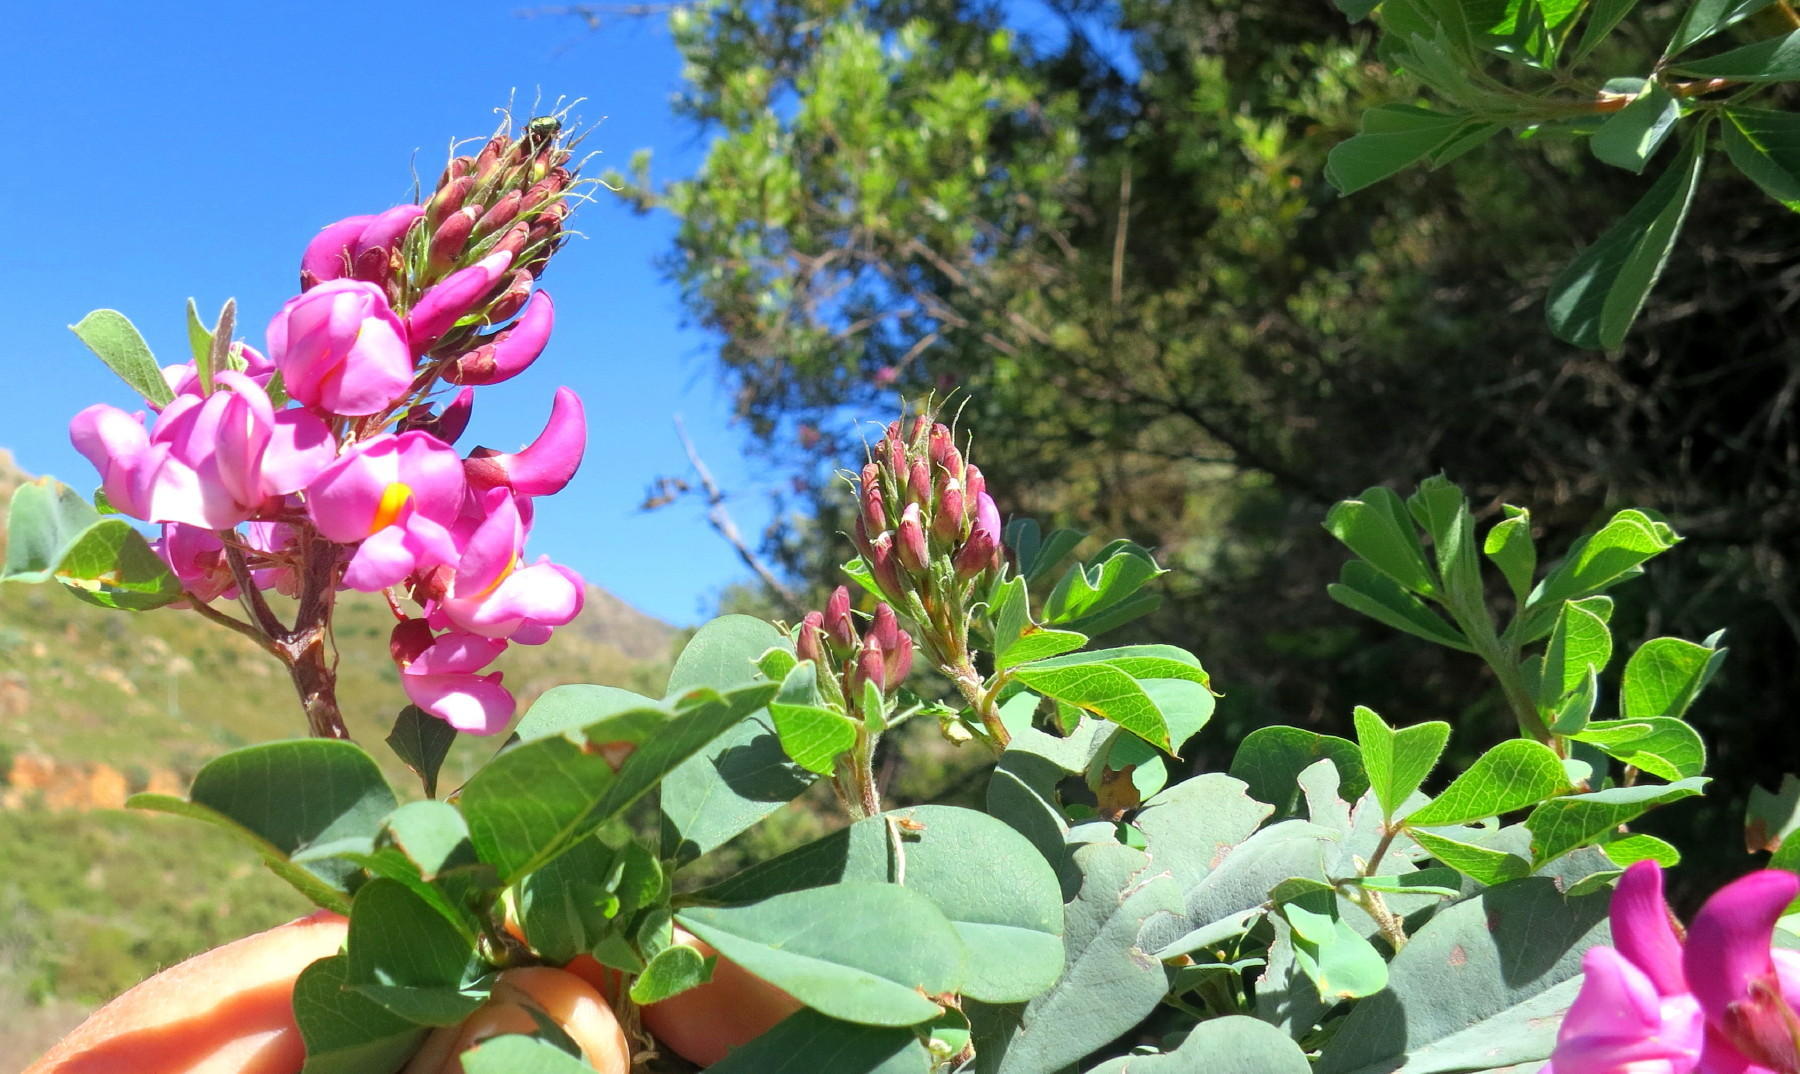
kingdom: Plantae
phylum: Tracheophyta
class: Magnoliopsida
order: Fabales
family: Fabaceae
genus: Hypocalyptus
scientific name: Hypocalyptus sophoroides
